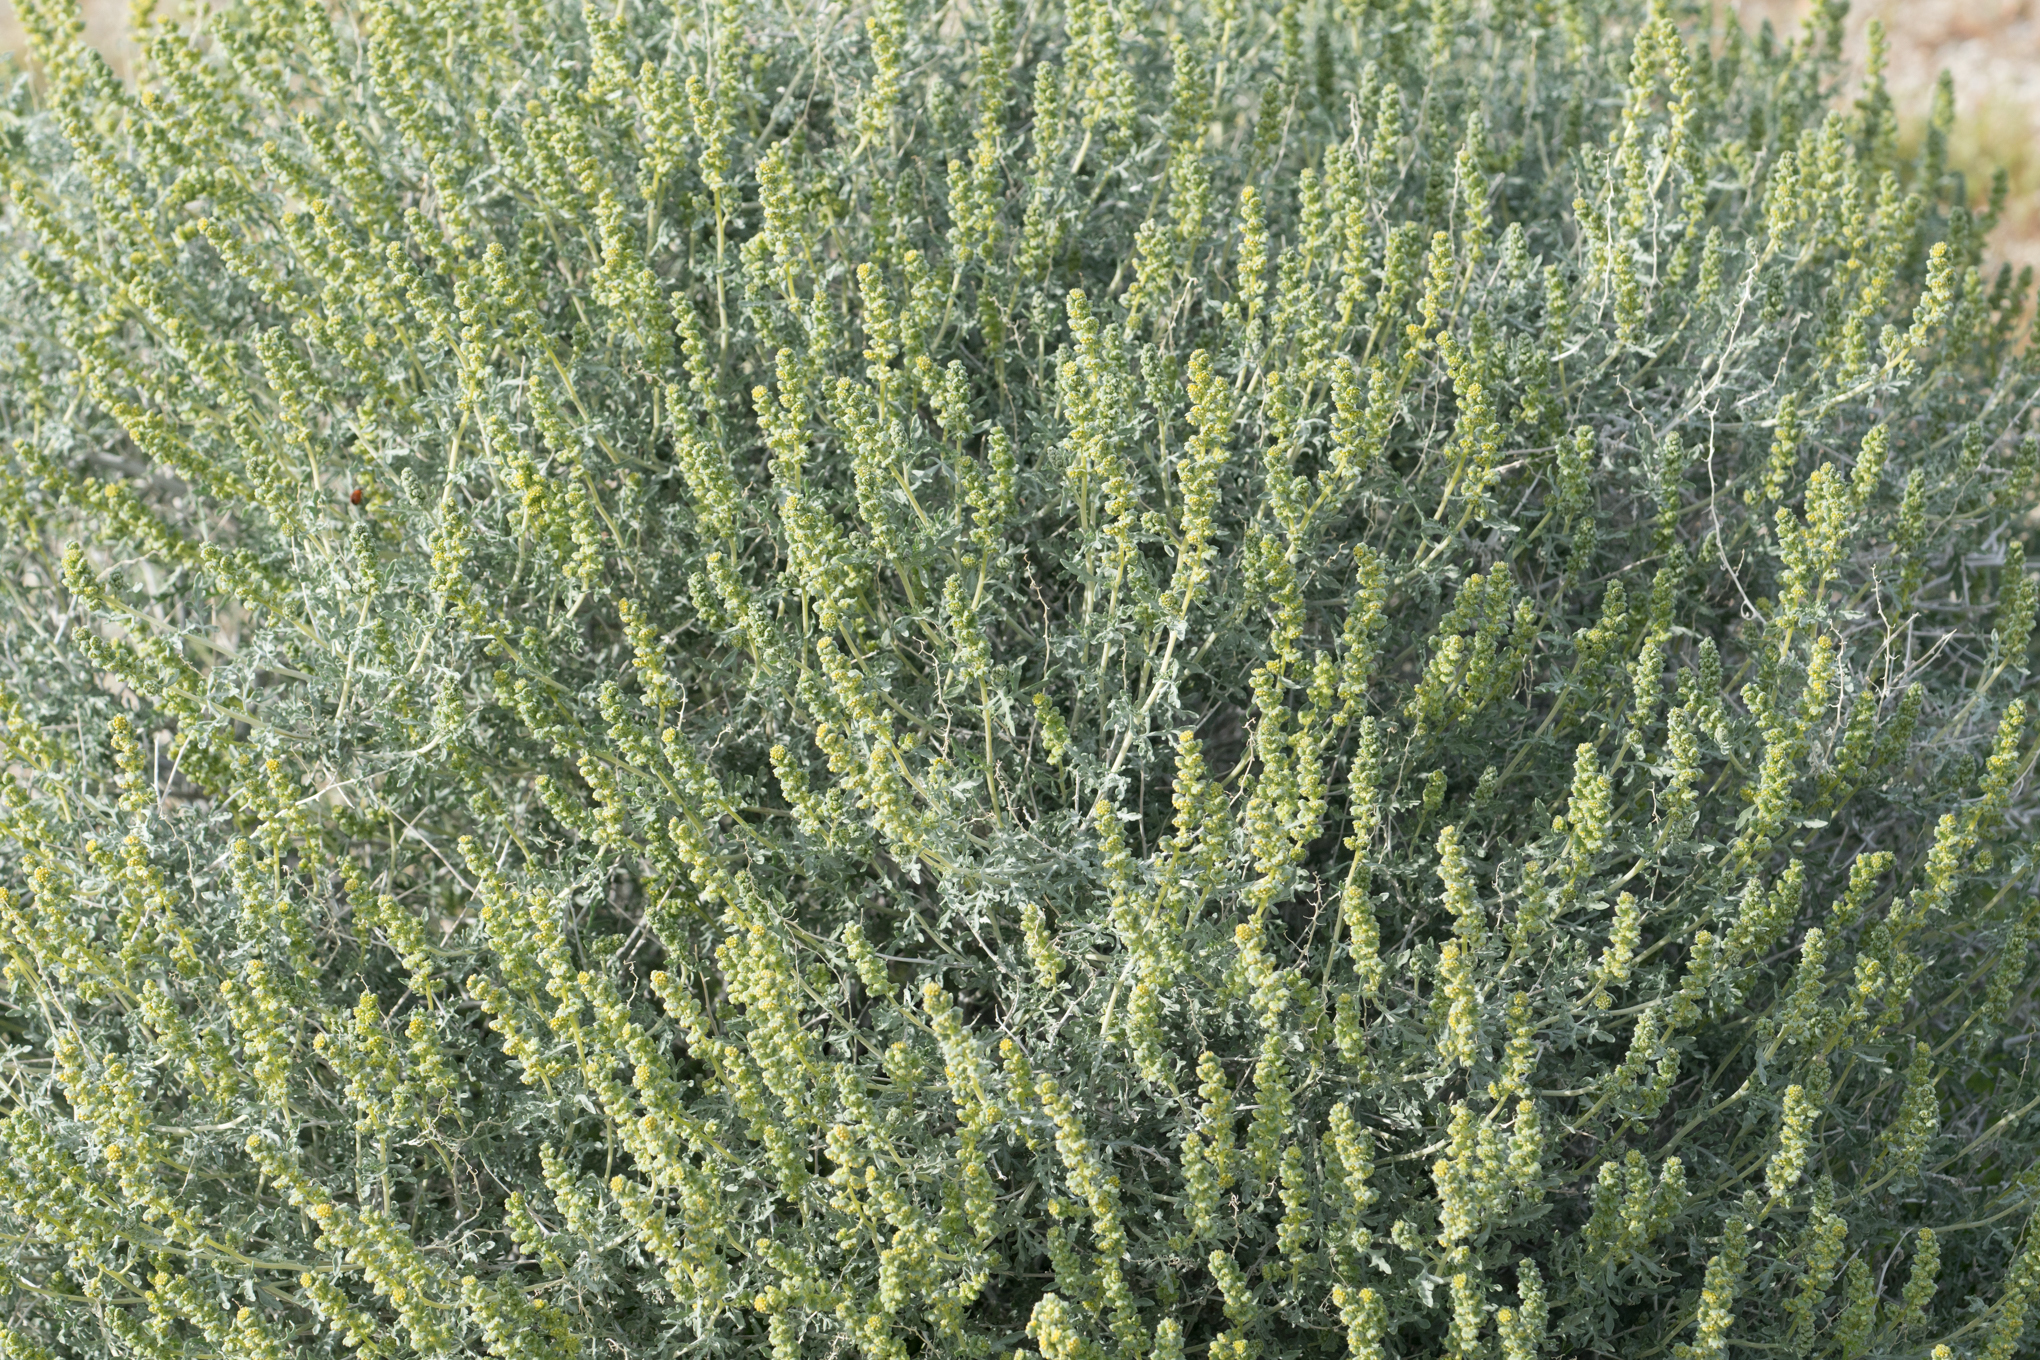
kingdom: Plantae
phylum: Tracheophyta
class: Magnoliopsida
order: Asterales
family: Asteraceae
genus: Ambrosia
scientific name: Ambrosia dumosa
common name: Bur-sage
